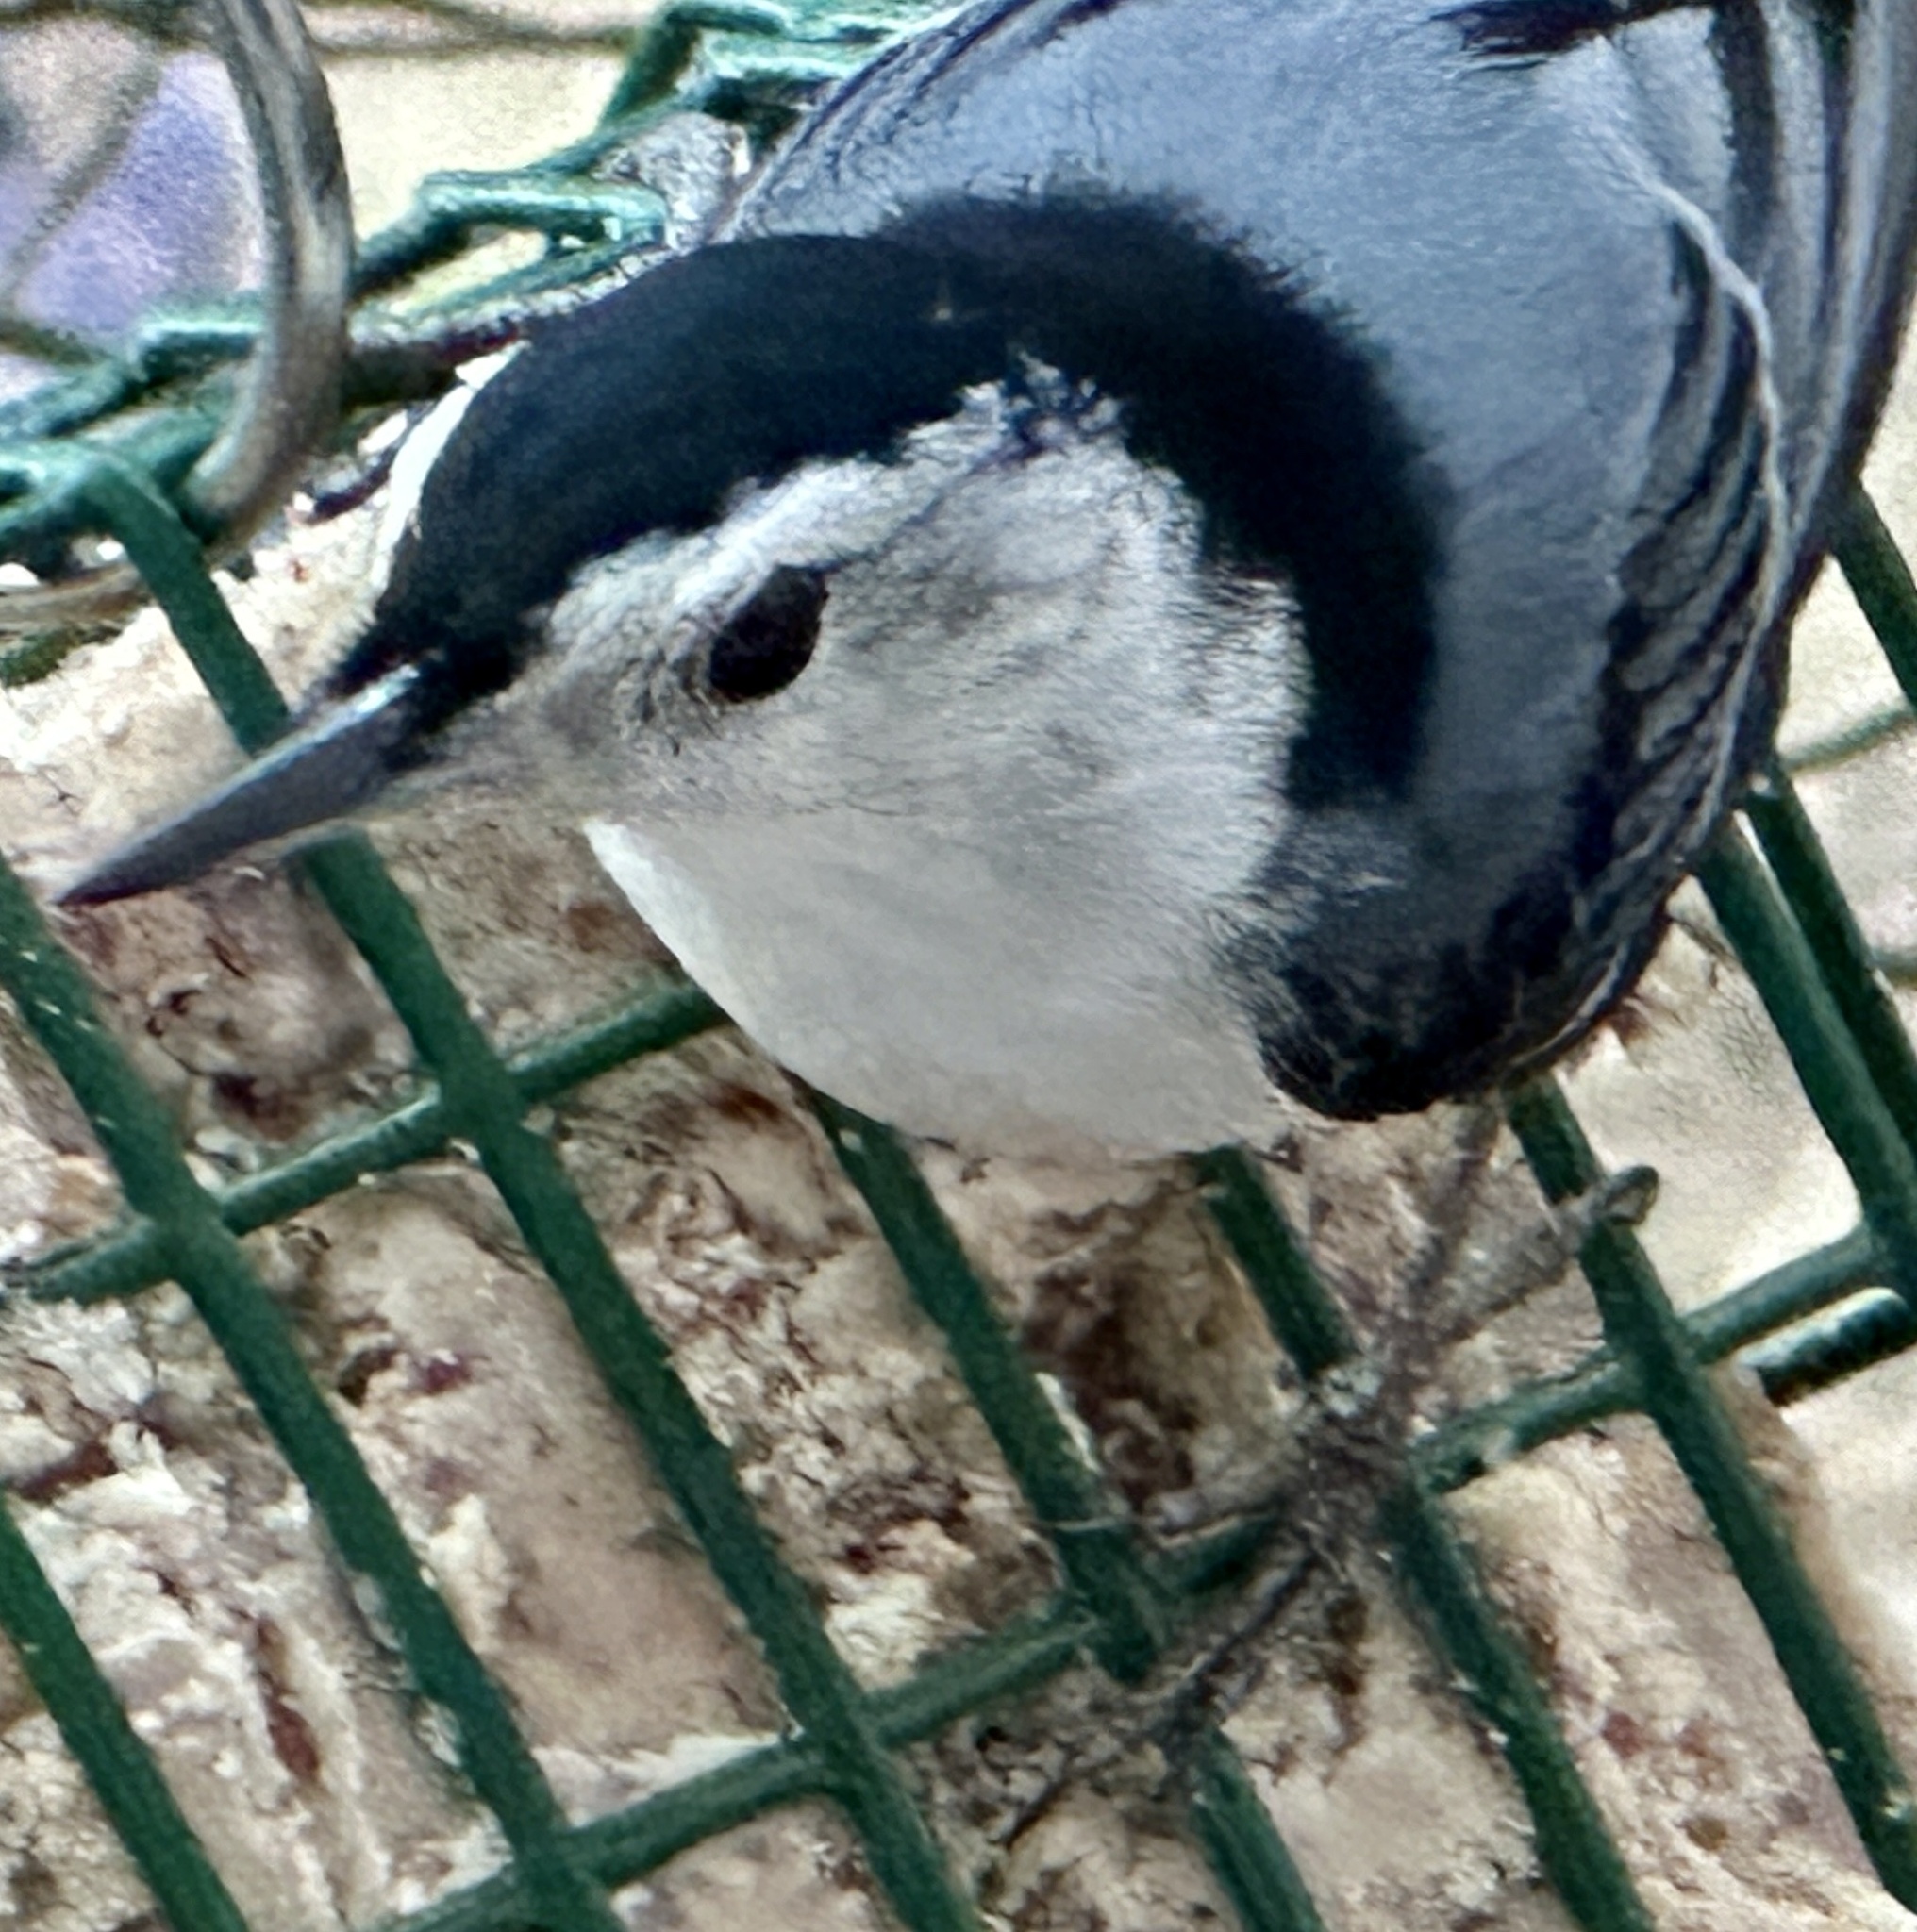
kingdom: Animalia
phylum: Chordata
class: Aves
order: Passeriformes
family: Sittidae
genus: Sitta
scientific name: Sitta carolinensis
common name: White-breasted nuthatch
